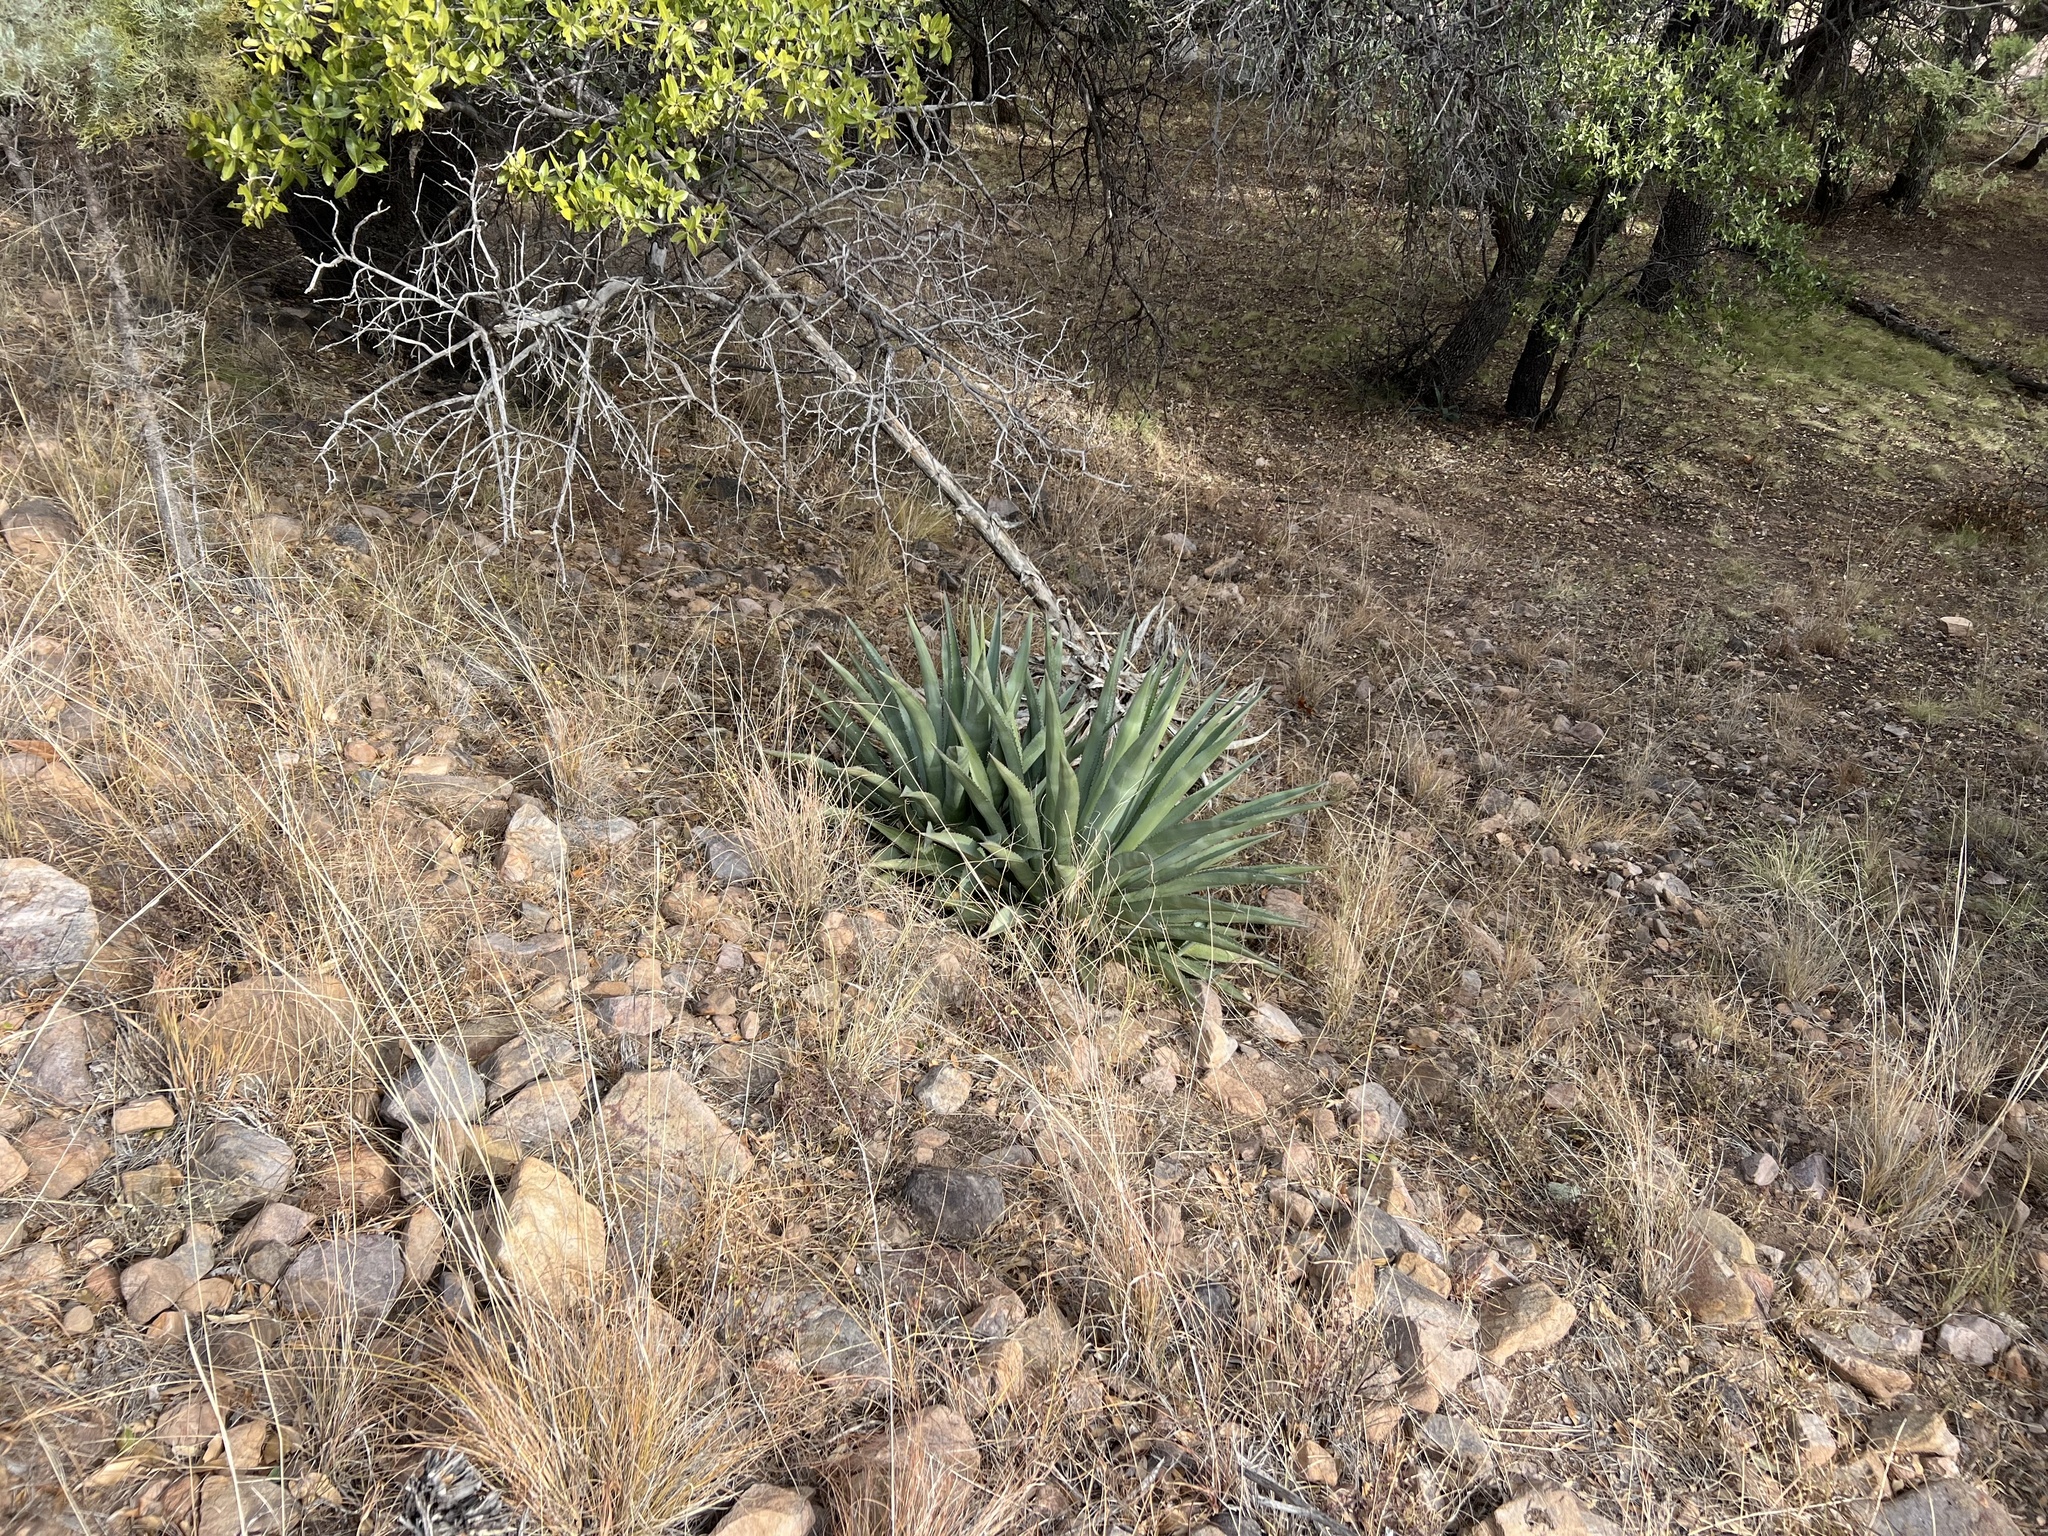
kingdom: Plantae
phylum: Tracheophyta
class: Liliopsida
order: Asparagales
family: Asparagaceae
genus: Agave
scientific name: Agave palmeri
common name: Palmer agave
